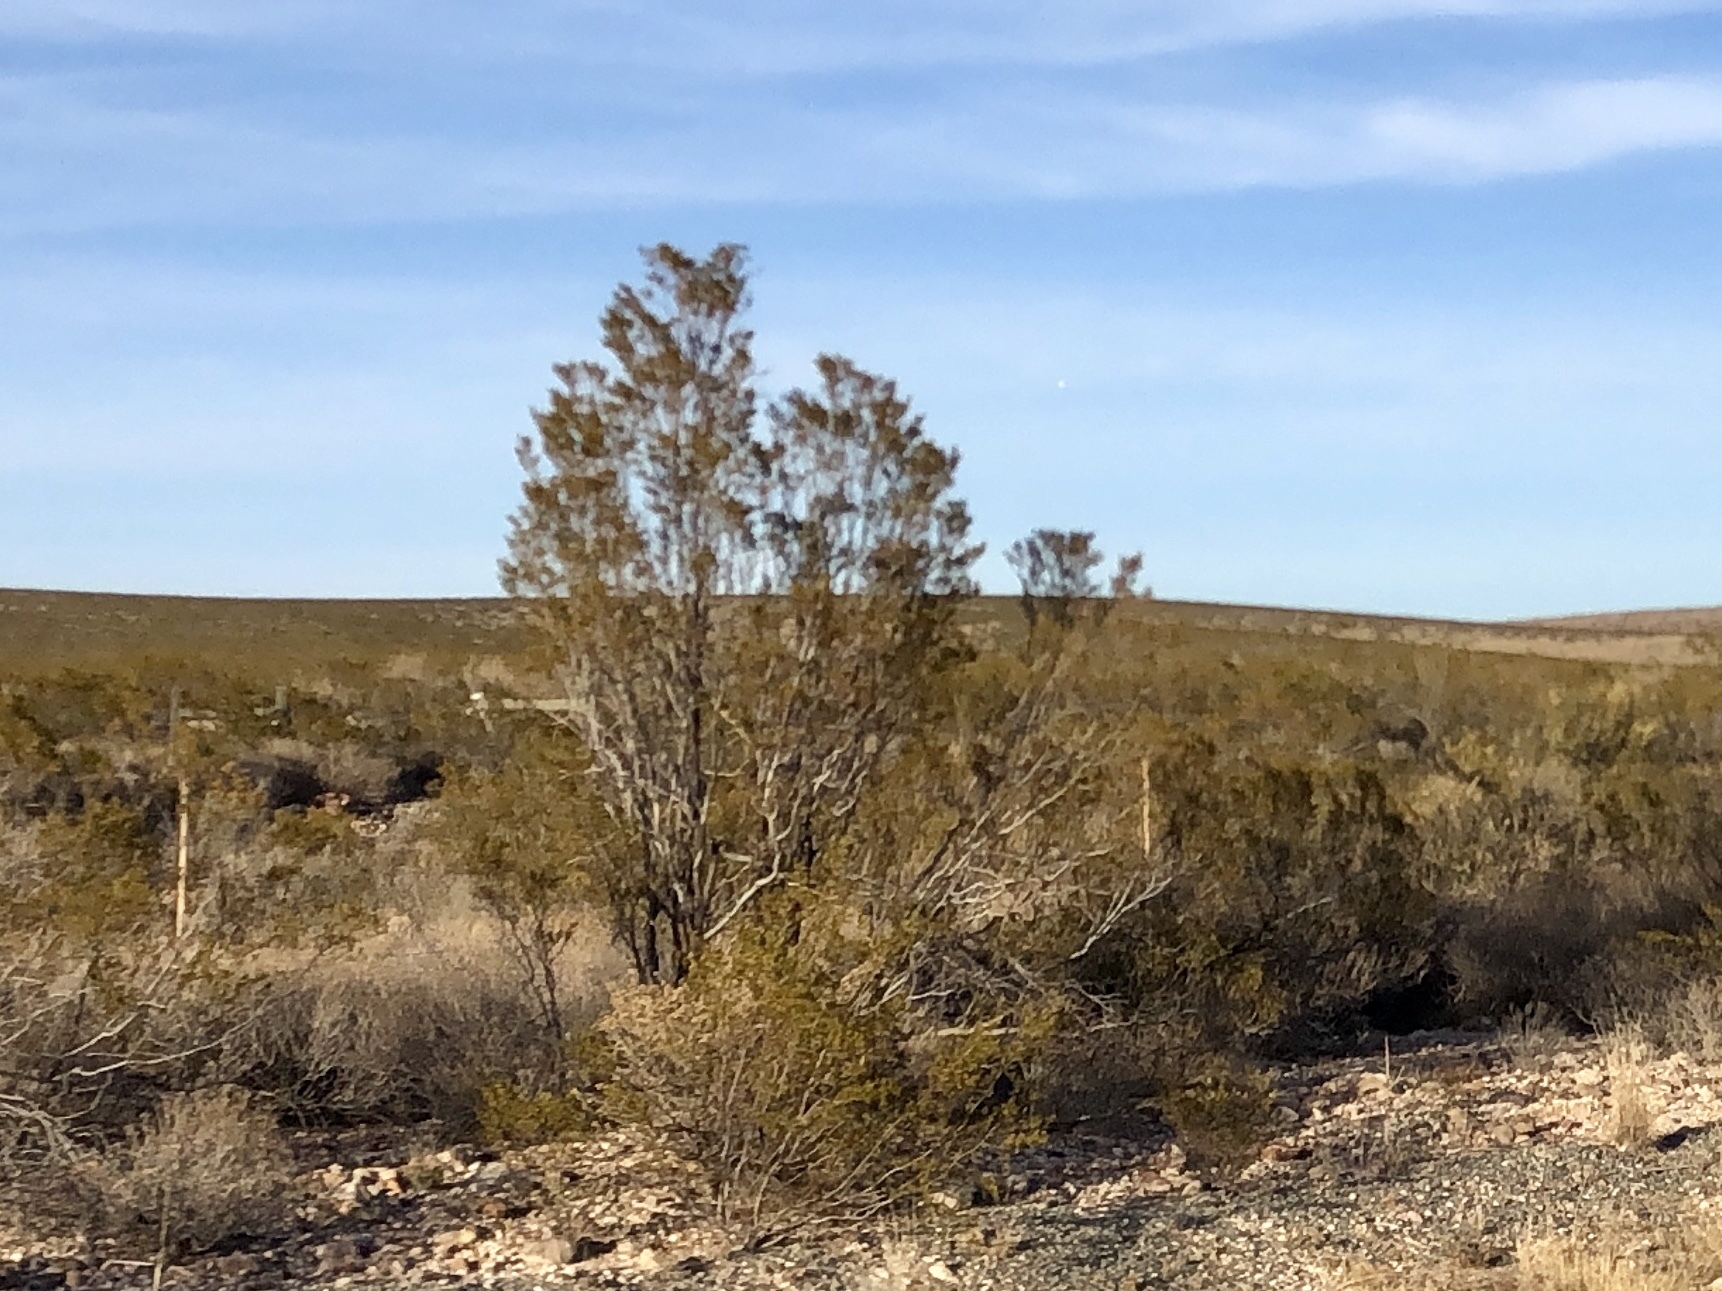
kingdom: Plantae
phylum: Tracheophyta
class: Magnoliopsida
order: Zygophyllales
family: Zygophyllaceae
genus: Larrea
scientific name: Larrea tridentata
